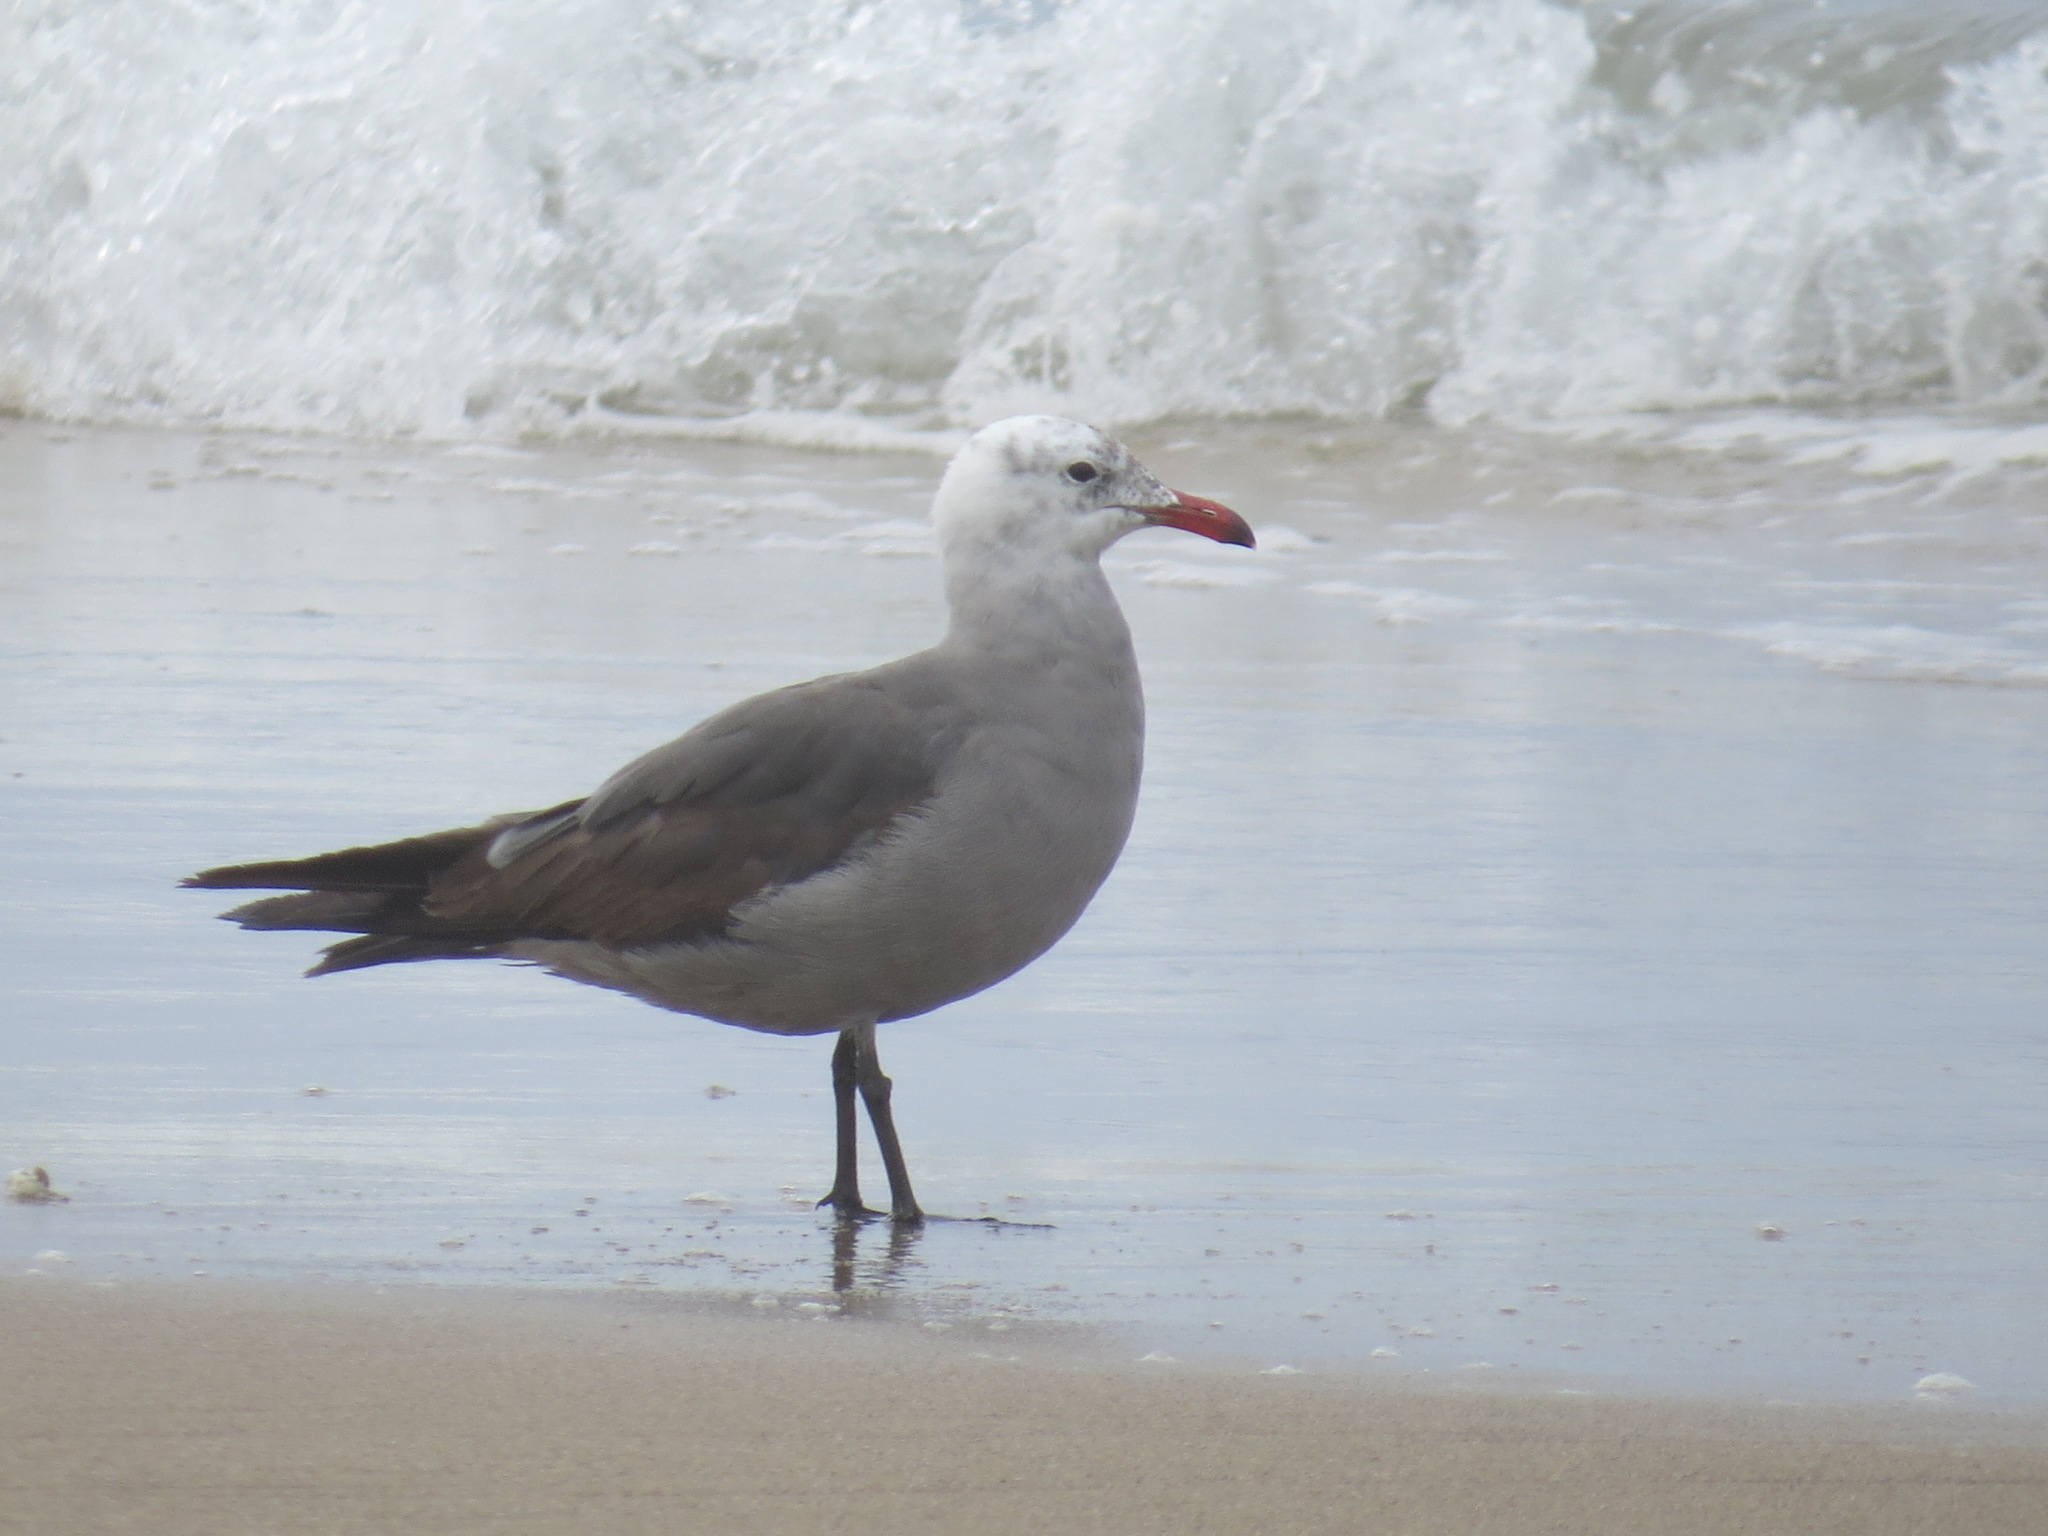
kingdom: Animalia
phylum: Chordata
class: Aves
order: Charadriiformes
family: Laridae
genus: Larus
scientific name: Larus heermanni
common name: Heermann's gull
